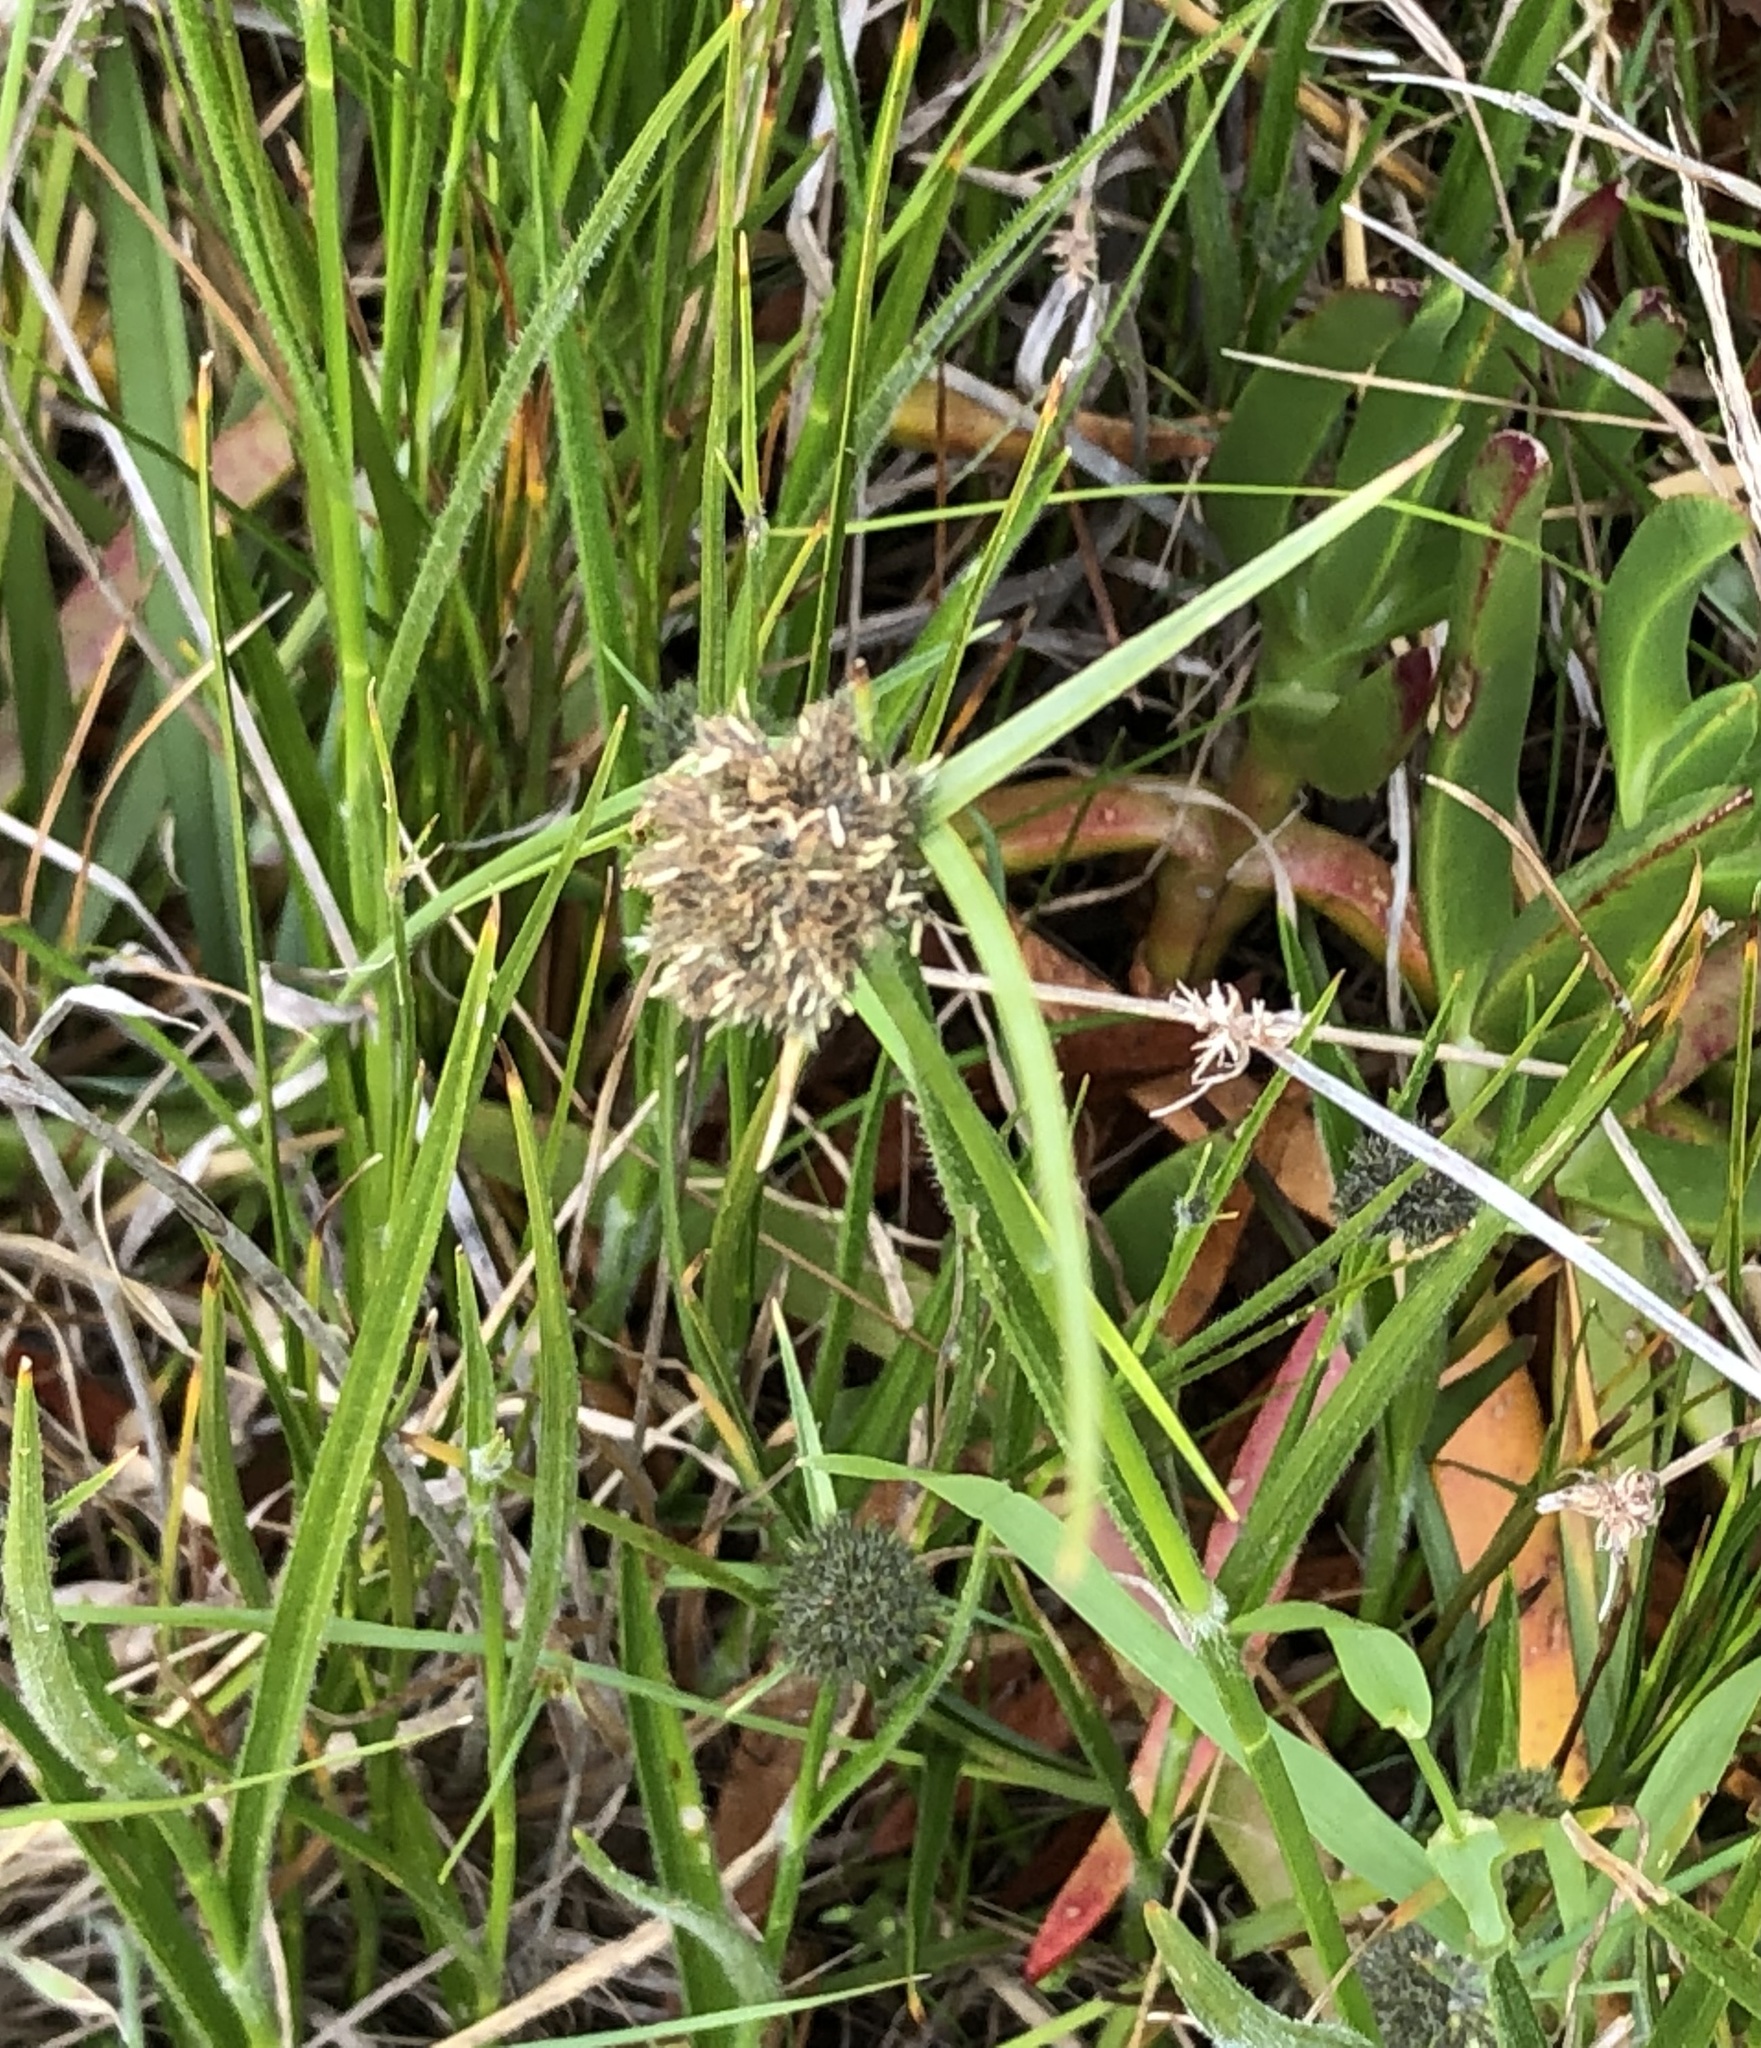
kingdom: Plantae
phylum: Tracheophyta
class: Liliopsida
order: Poales
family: Cyperaceae
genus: Fuirena
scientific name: Fuirena hirsuta
